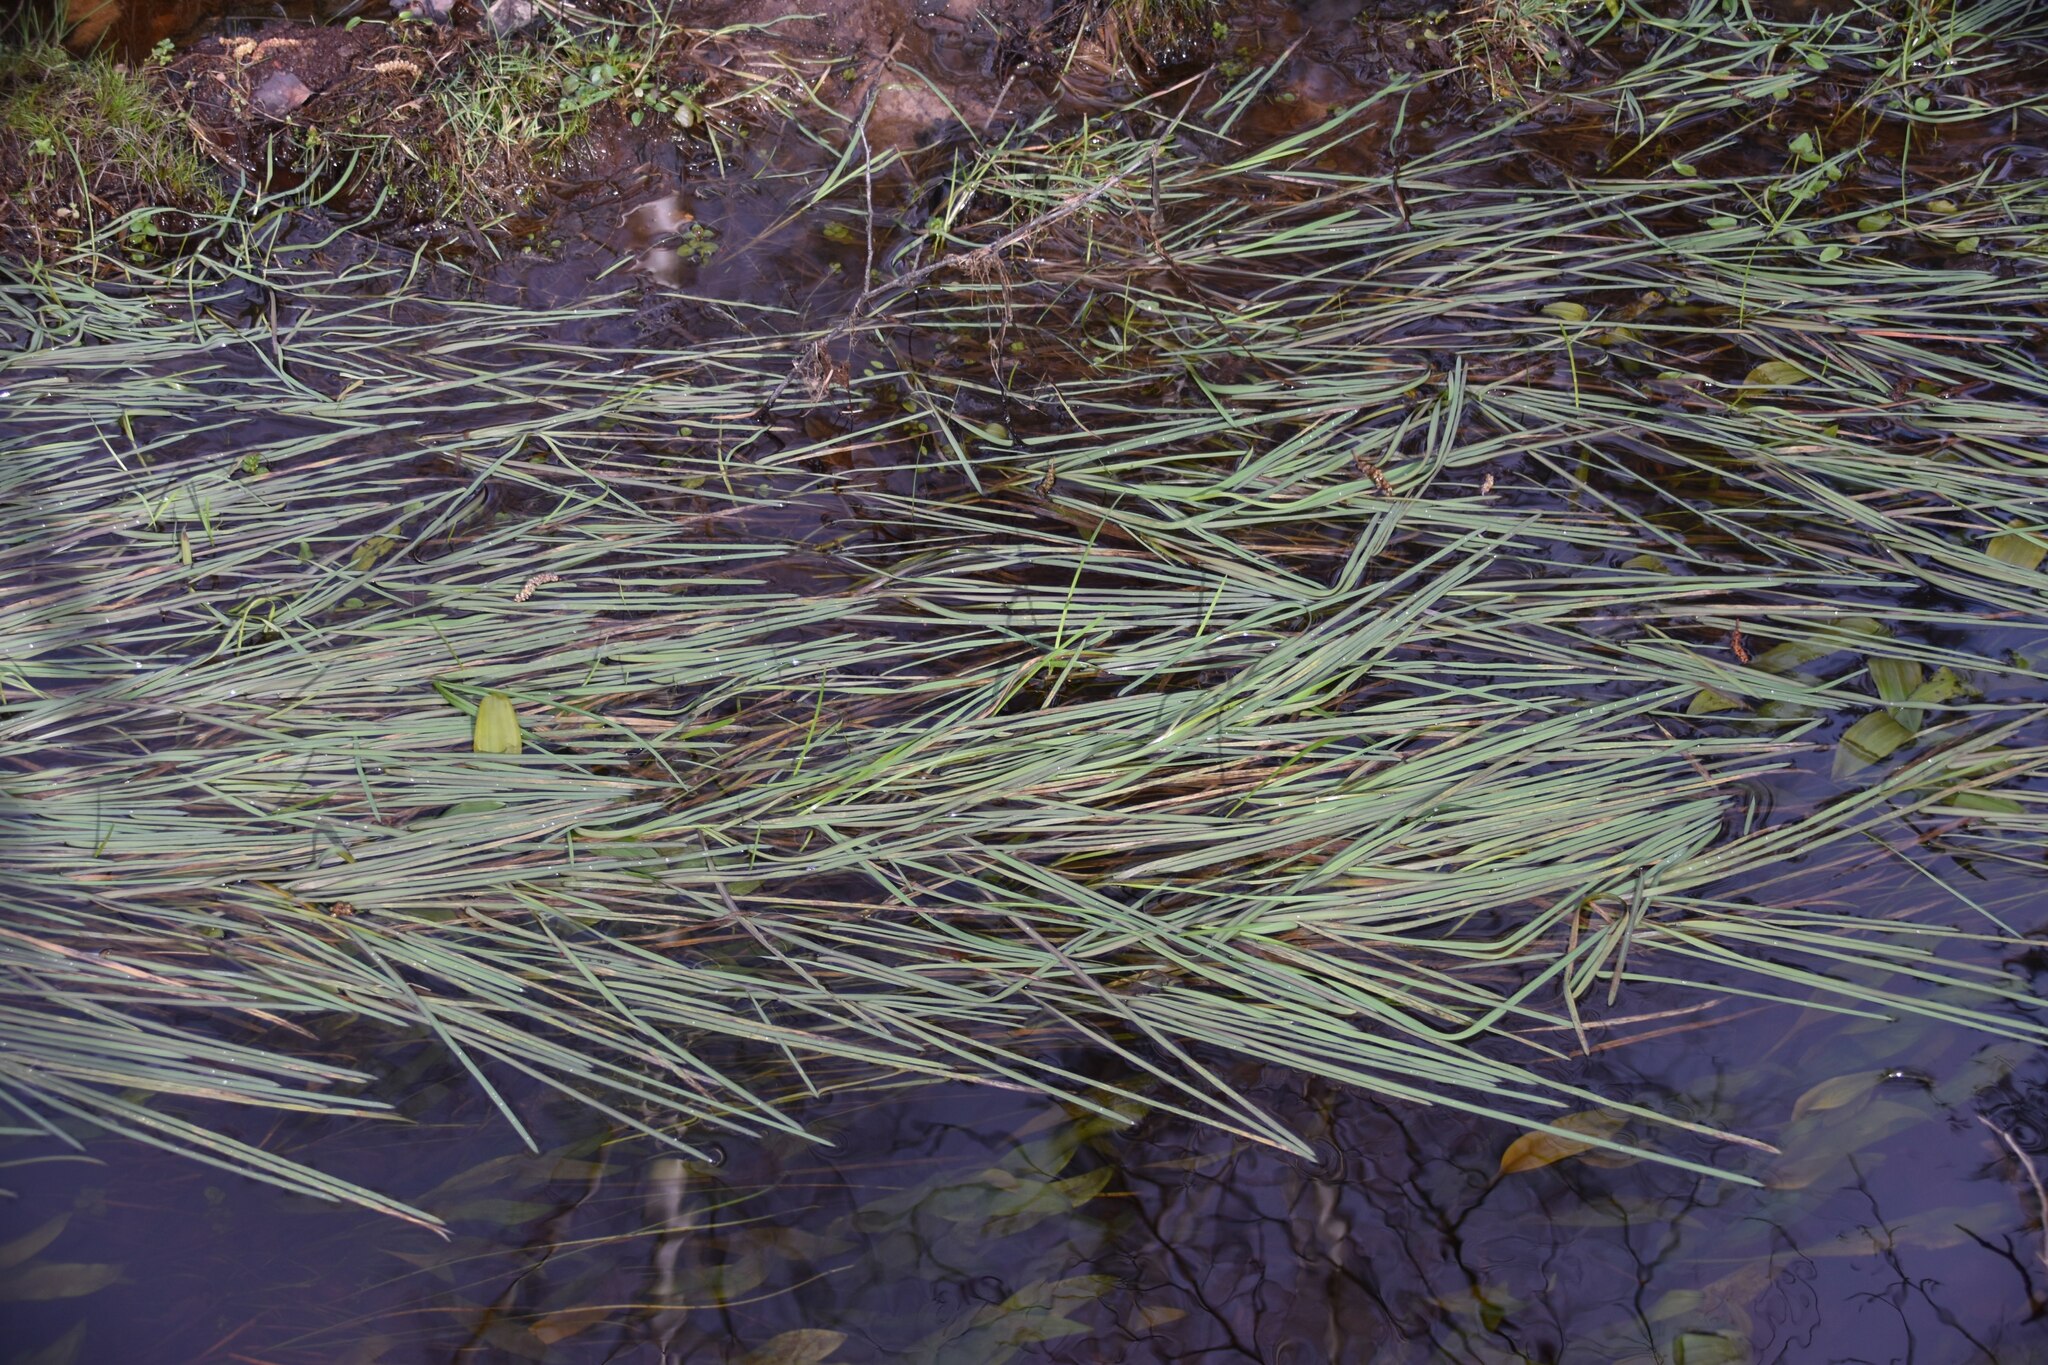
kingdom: Plantae
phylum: Tracheophyta
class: Liliopsida
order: Poales
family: Poaceae
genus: Glyceria
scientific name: Glyceria fluitans
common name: Floating sweet-grass
